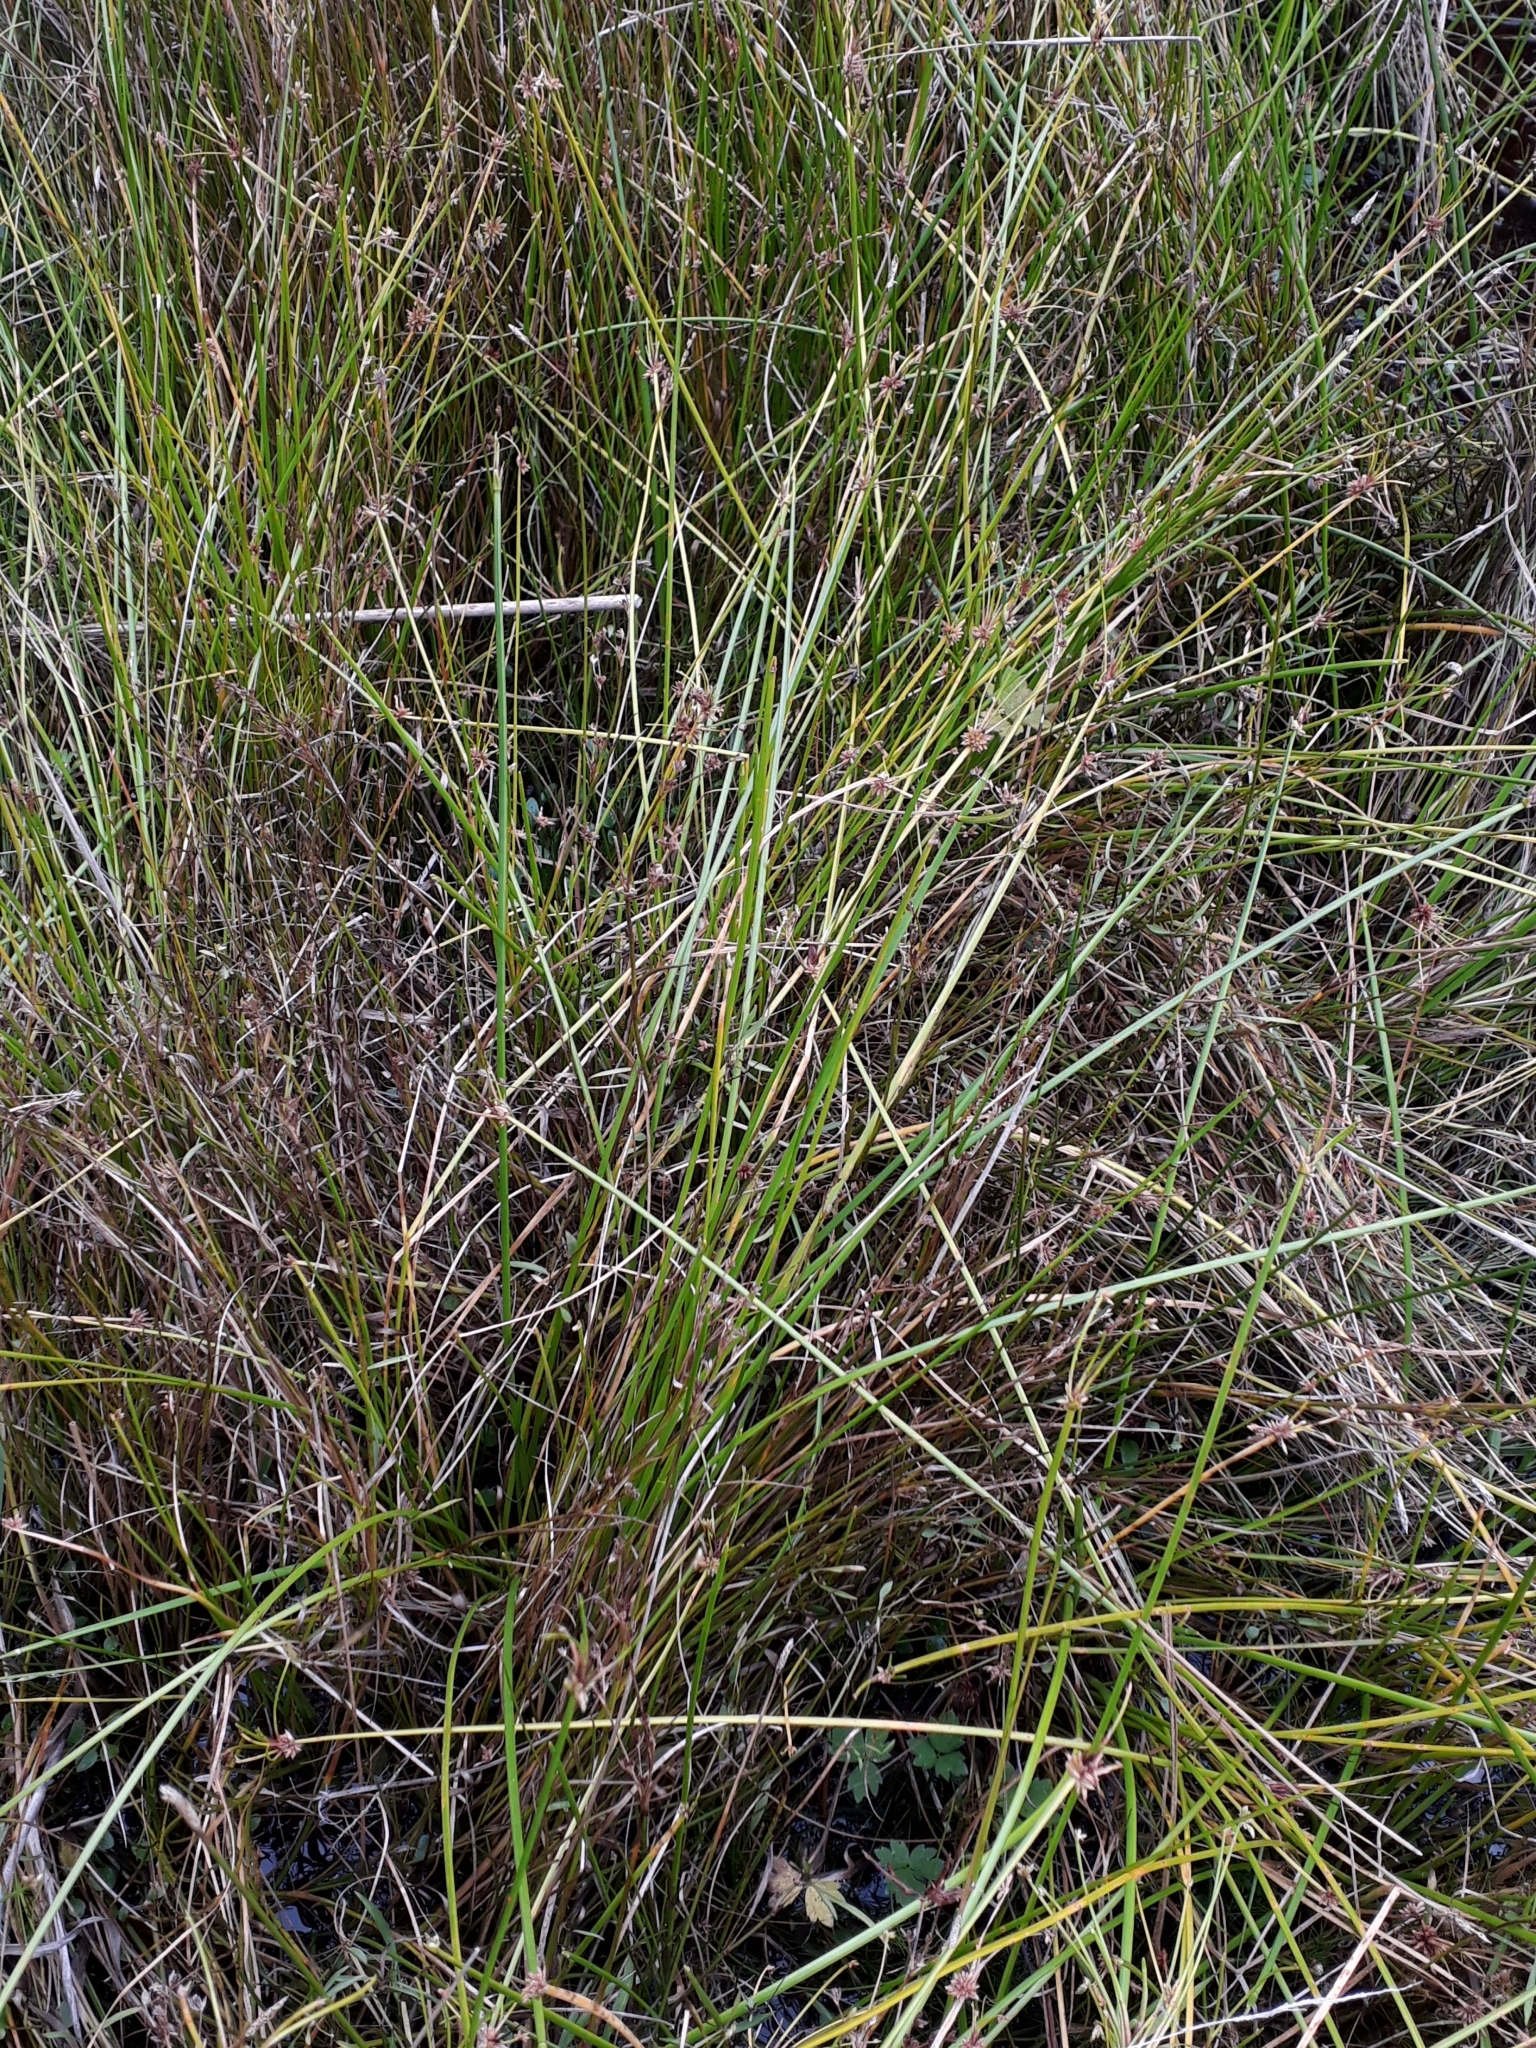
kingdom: Plantae
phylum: Tracheophyta
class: Liliopsida
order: Poales
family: Cyperaceae
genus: Isolepis
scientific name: Isolepis prolifera
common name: Proliferating bulrush
